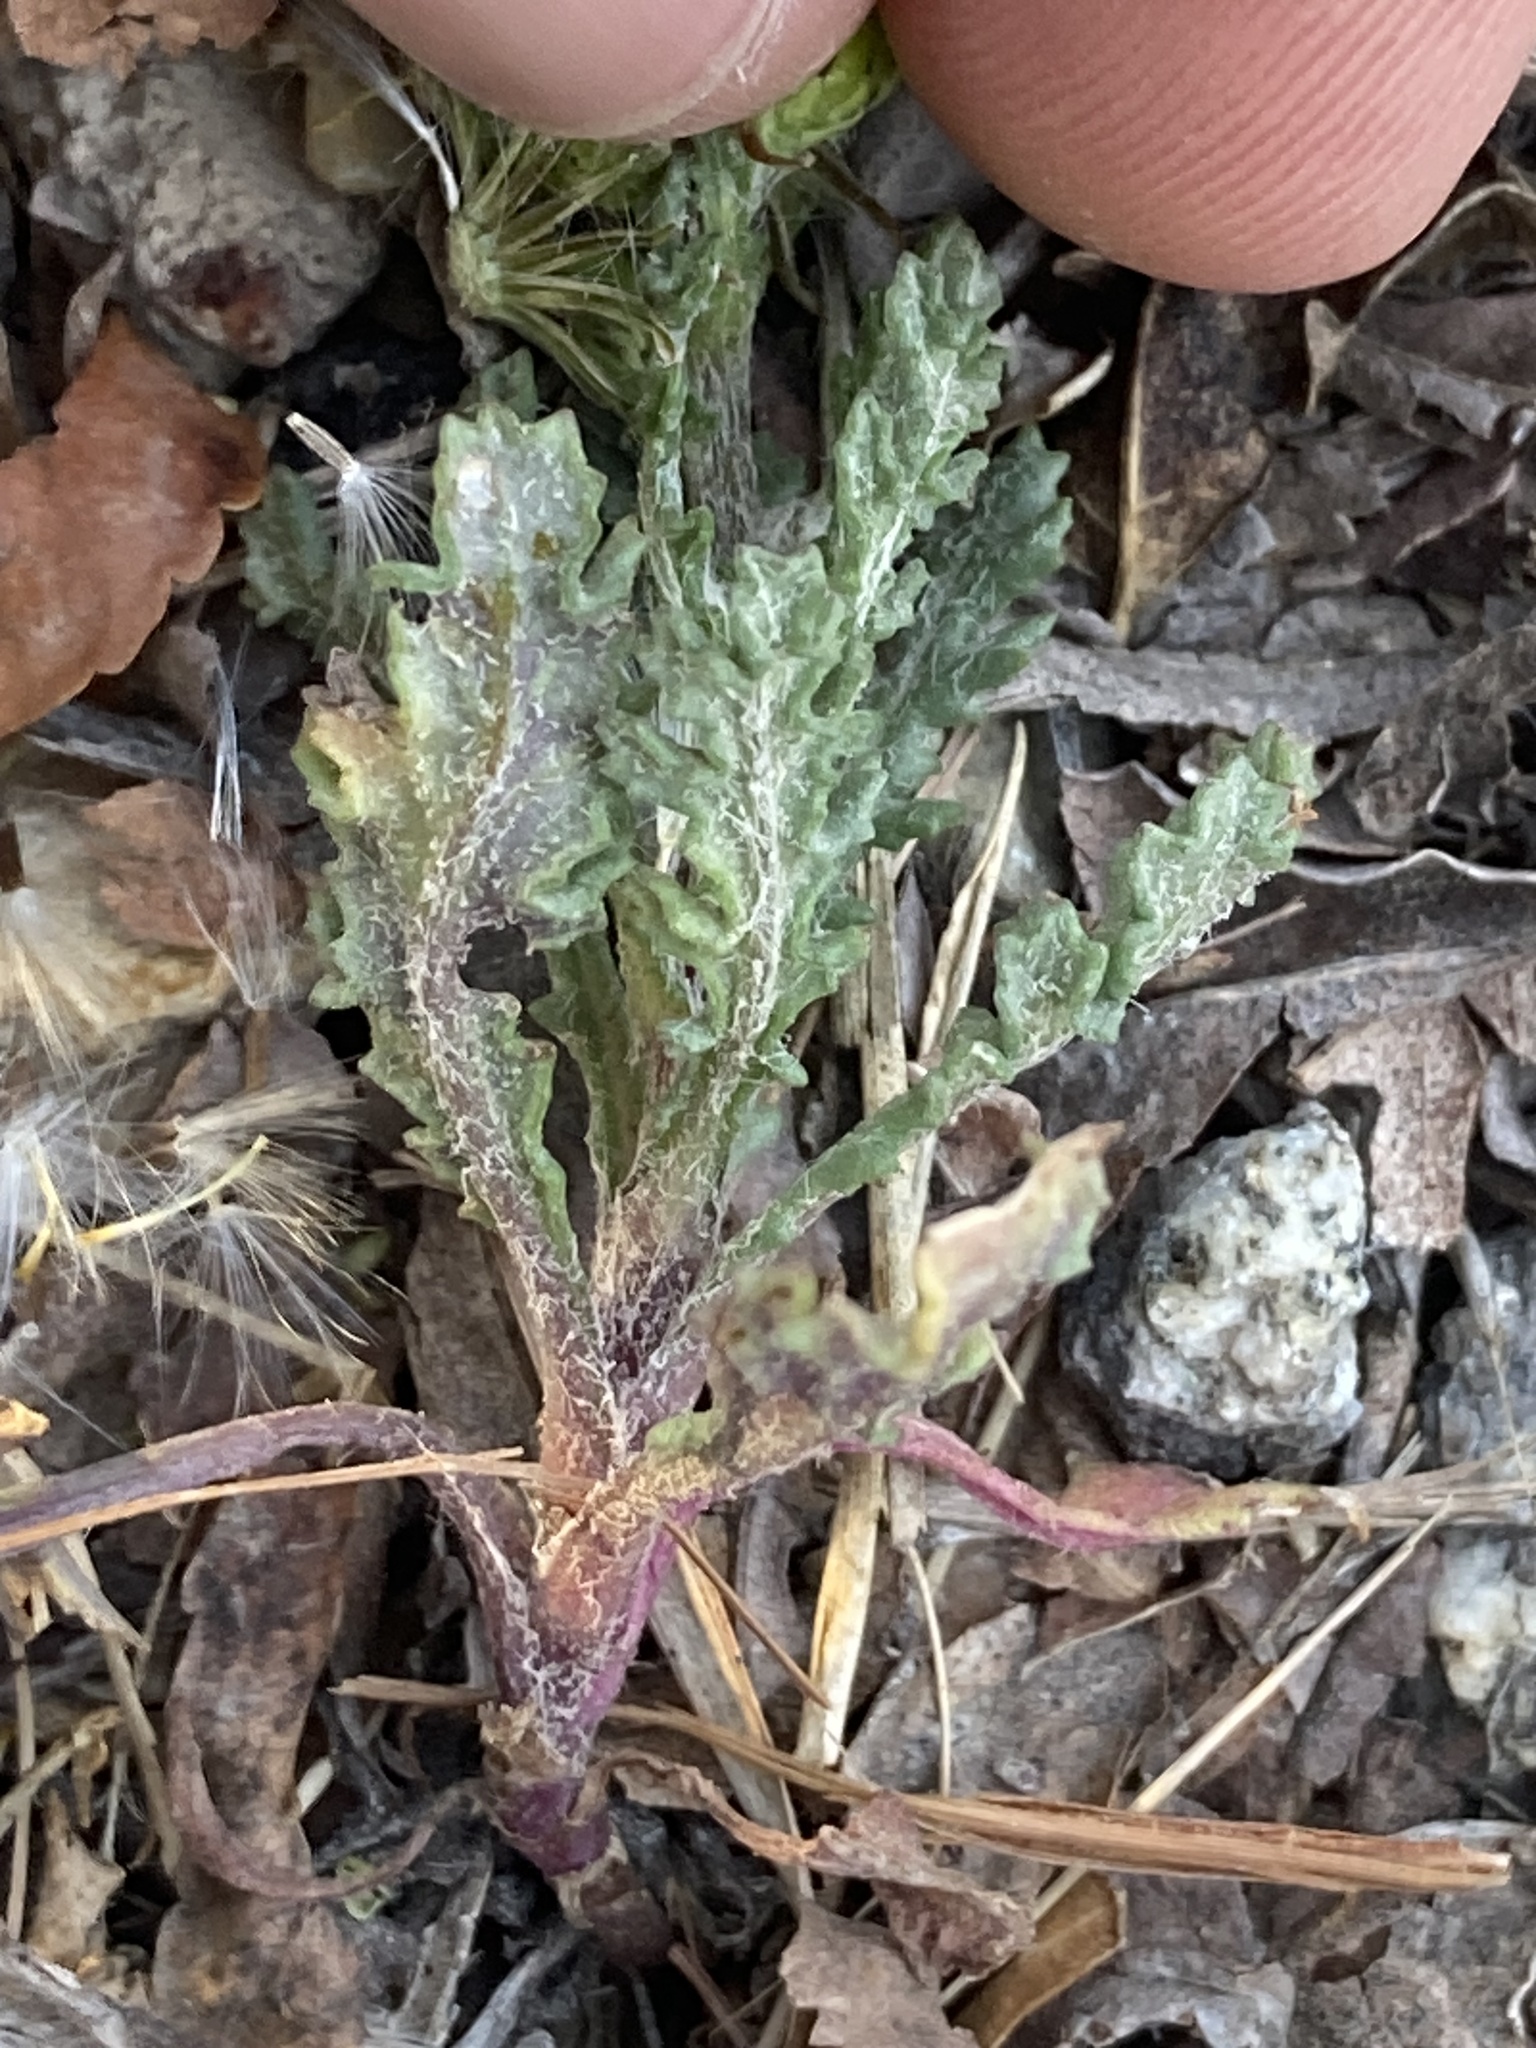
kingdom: Plantae
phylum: Tracheophyta
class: Magnoliopsida
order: Asterales
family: Asteraceae
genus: Senecio
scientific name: Senecio vulgaris
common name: Old-man-in-the-spring
